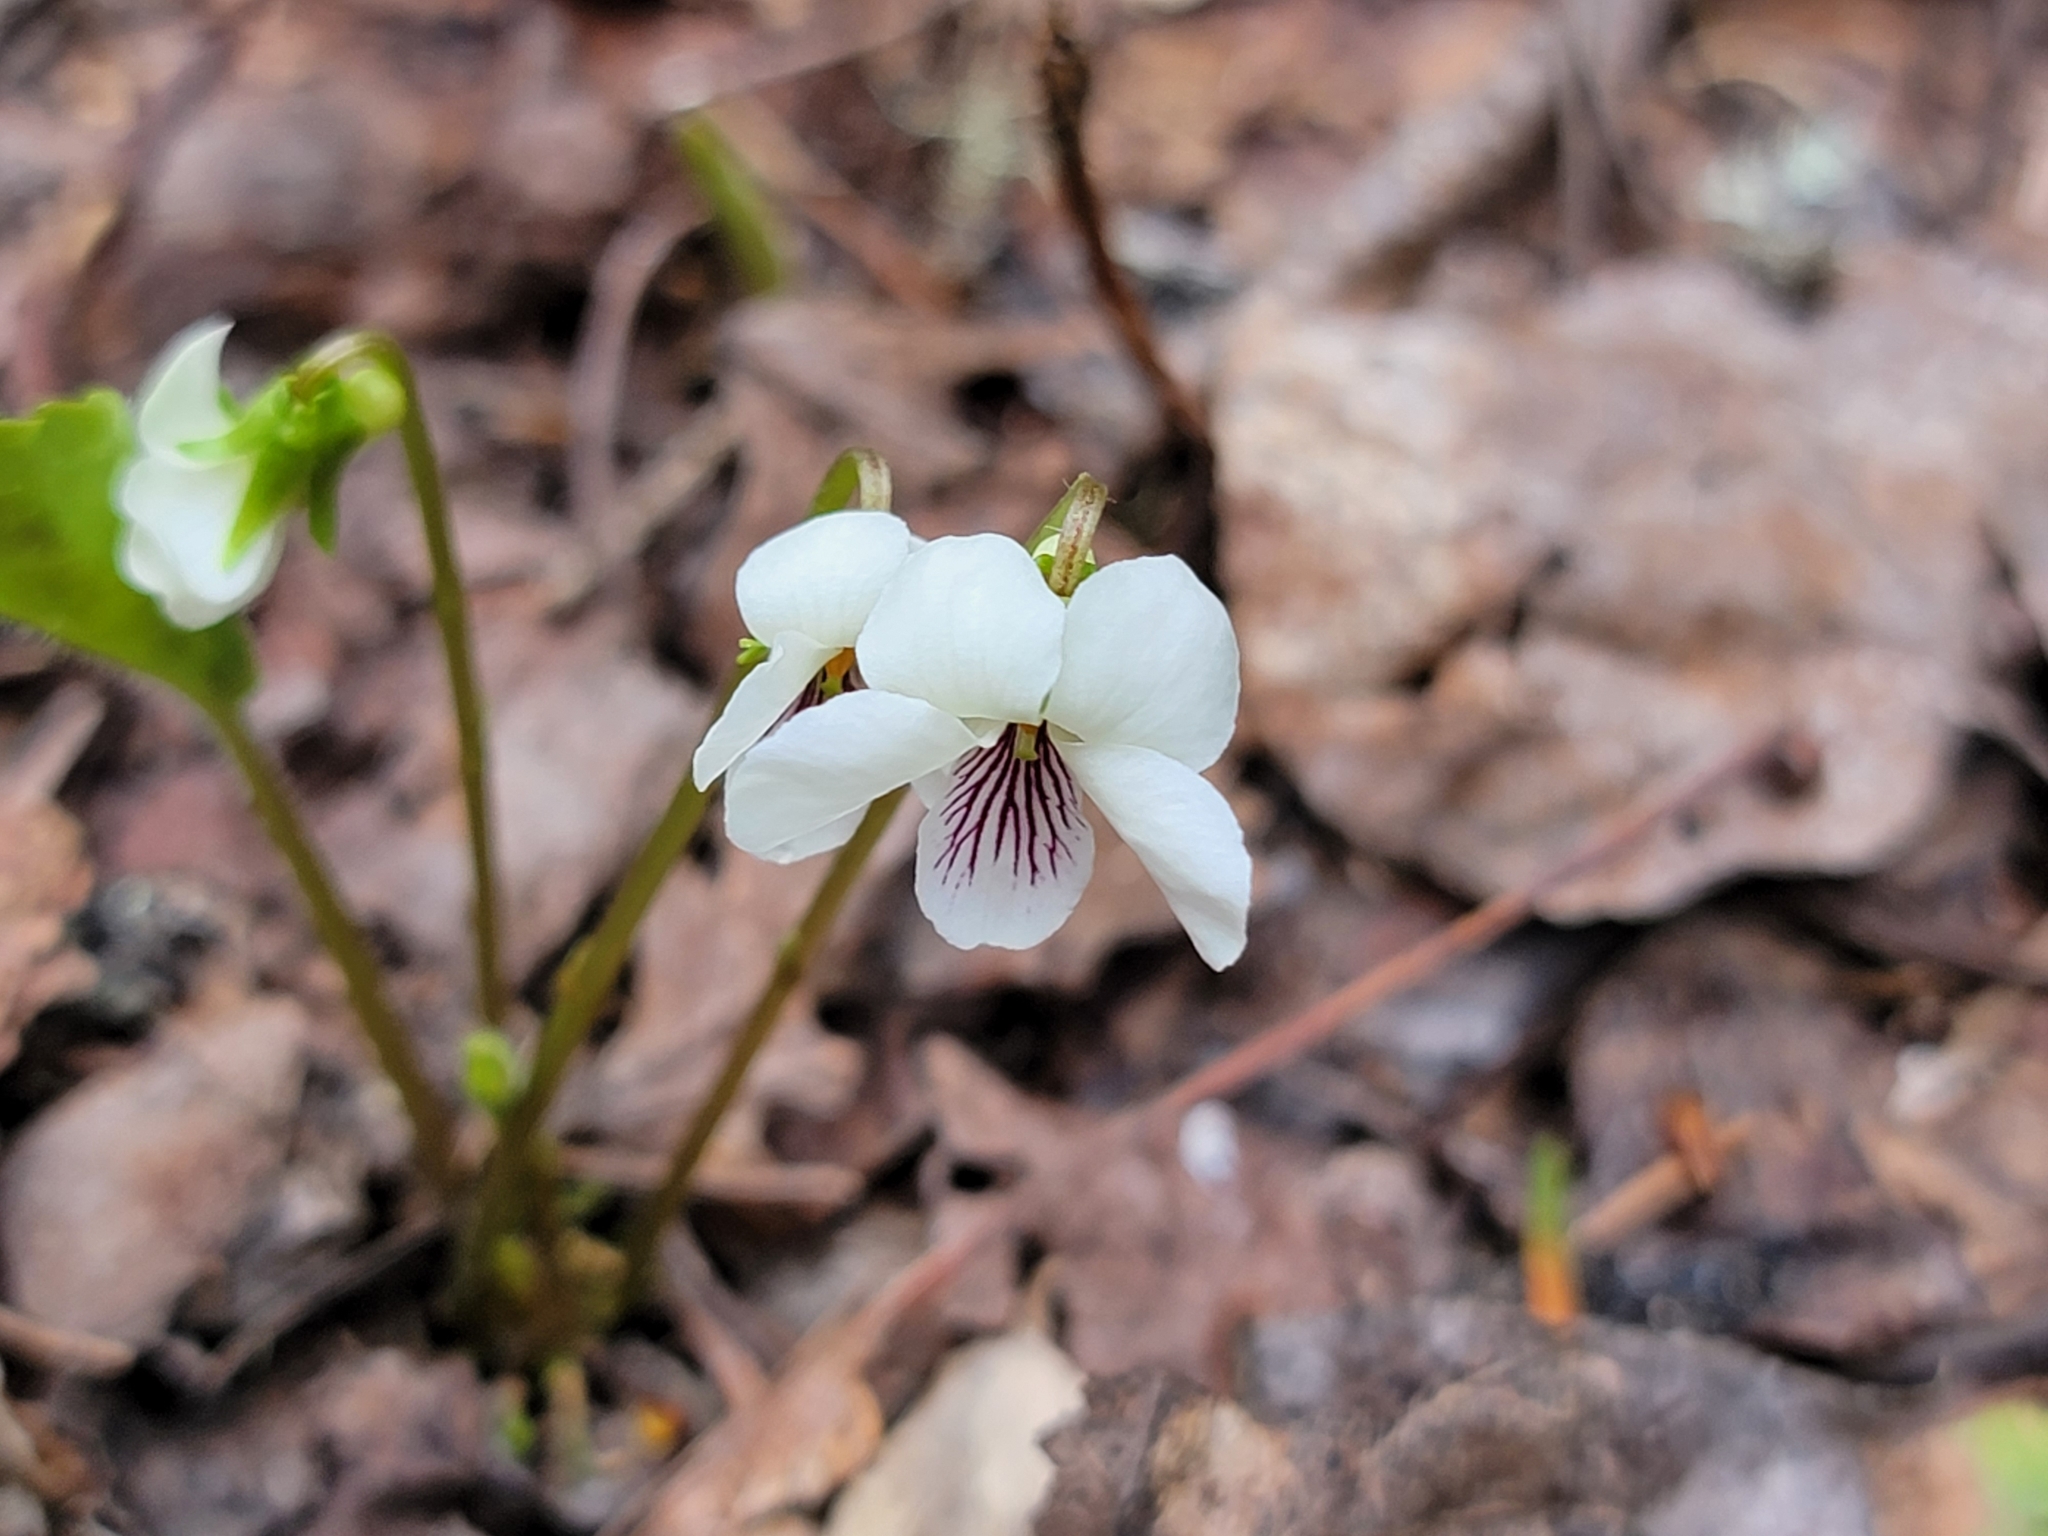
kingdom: Plantae
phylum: Tracheophyta
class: Magnoliopsida
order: Malpighiales
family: Violaceae
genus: Viola
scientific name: Viola renifolia
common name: Kidney-leaf violet
